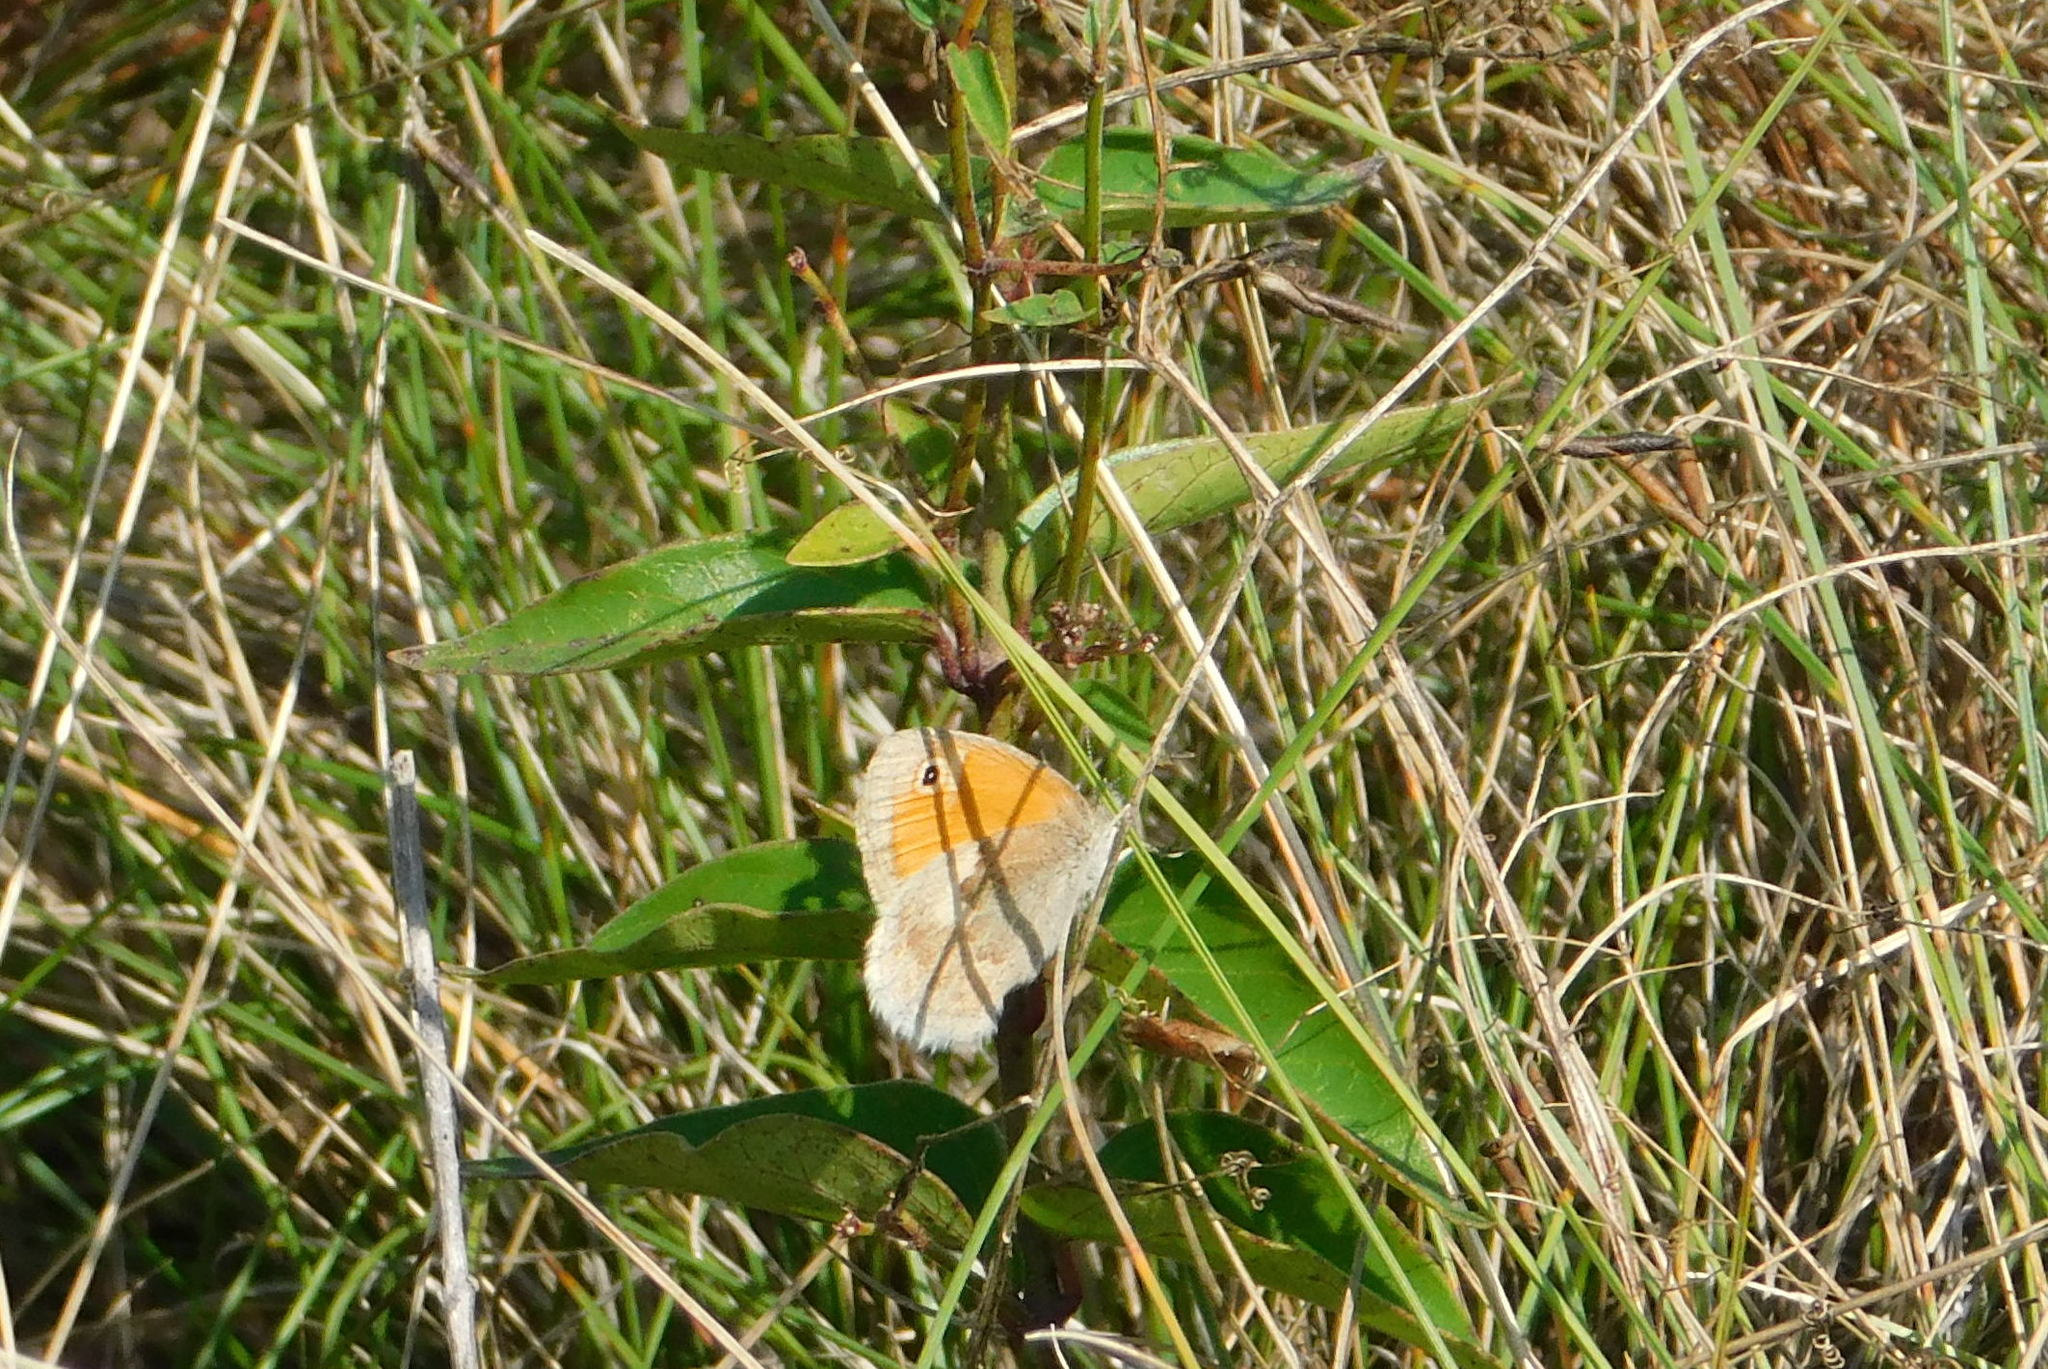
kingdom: Animalia
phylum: Arthropoda
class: Insecta
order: Lepidoptera
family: Nymphalidae
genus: Coenonympha
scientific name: Coenonympha pamphilus
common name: Small heath
